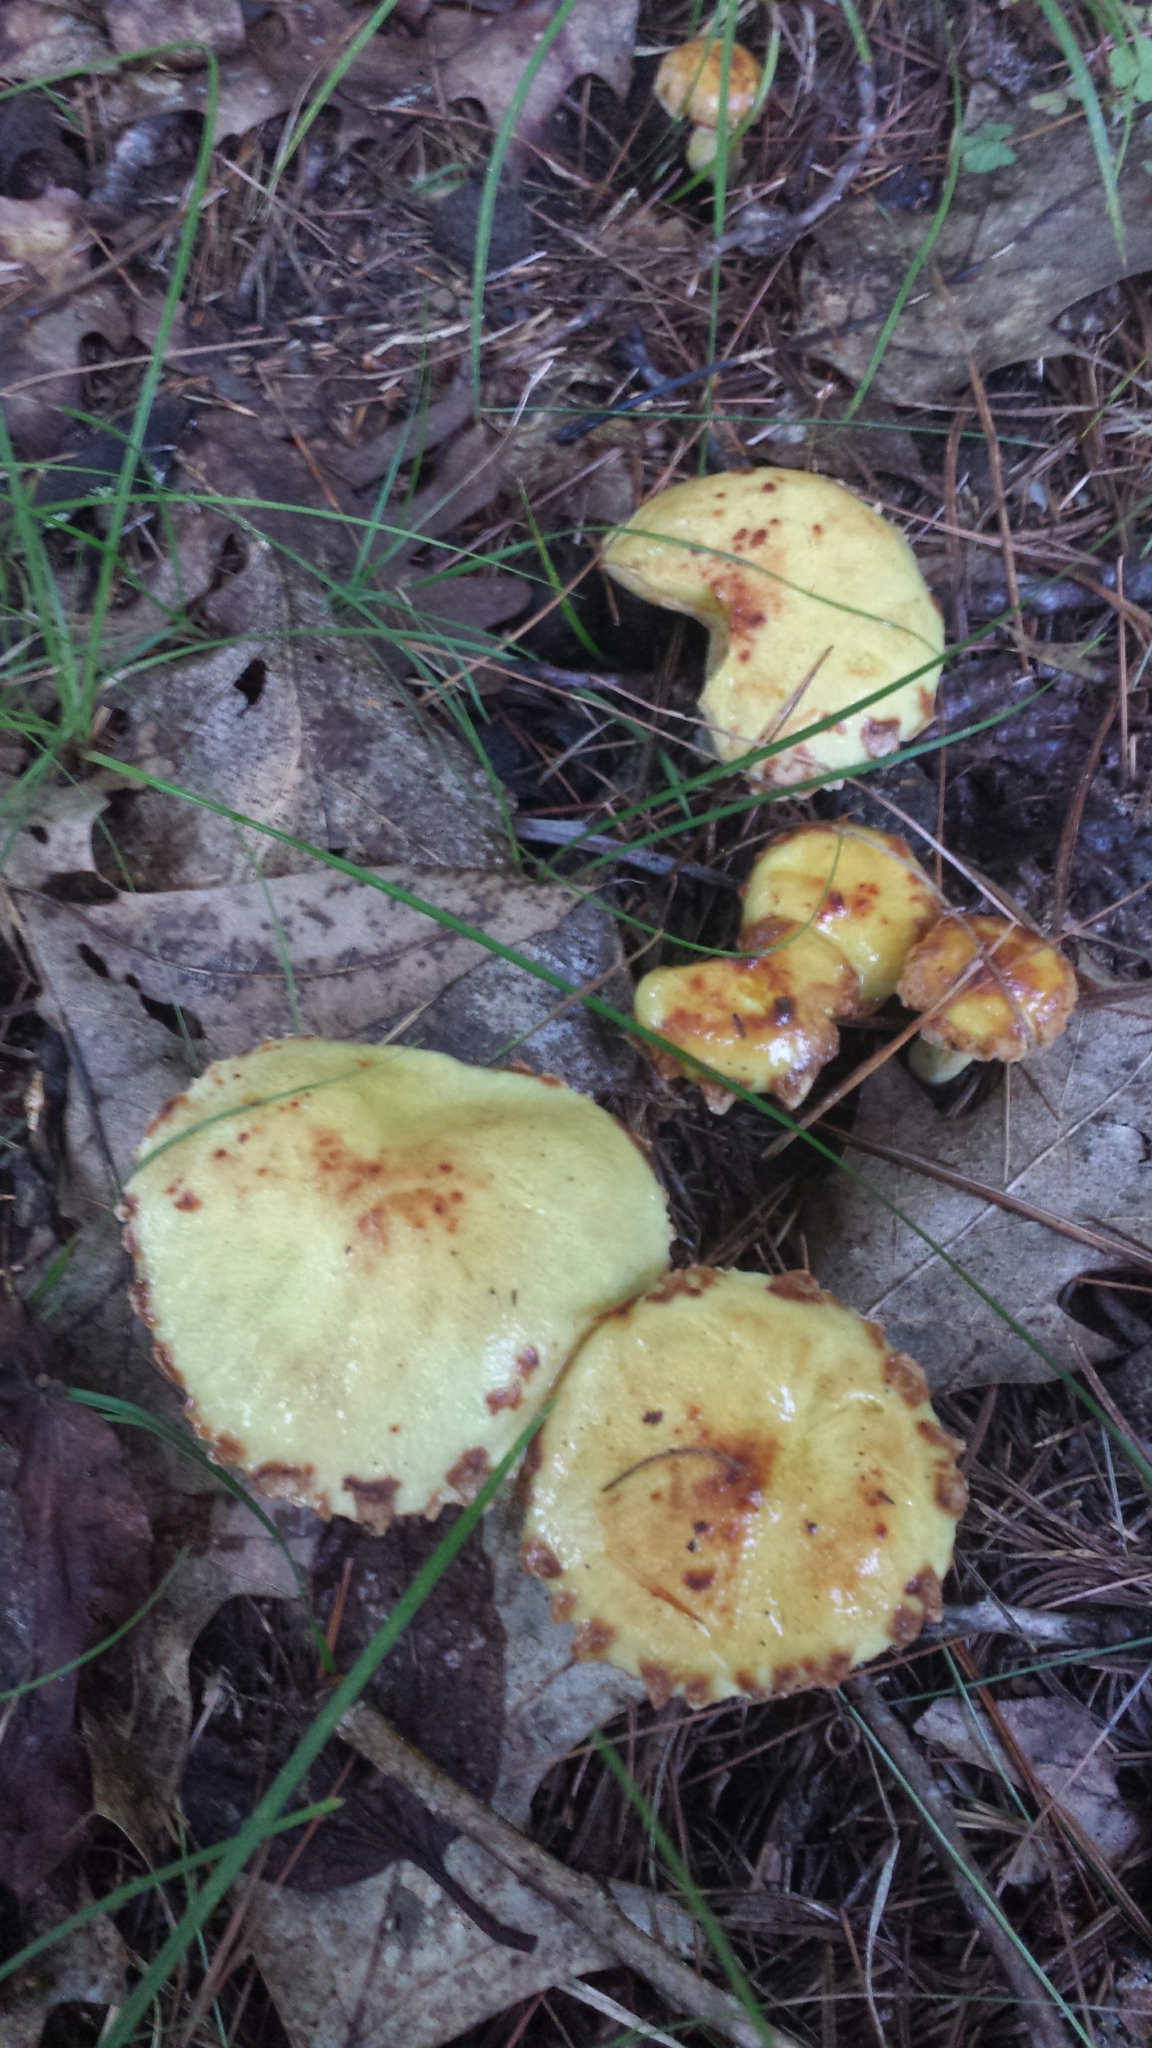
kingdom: Fungi
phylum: Basidiomycota
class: Agaricomycetes
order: Boletales
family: Suillaceae
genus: Suillus
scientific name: Suillus americanus
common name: Chicken fat mushroom
